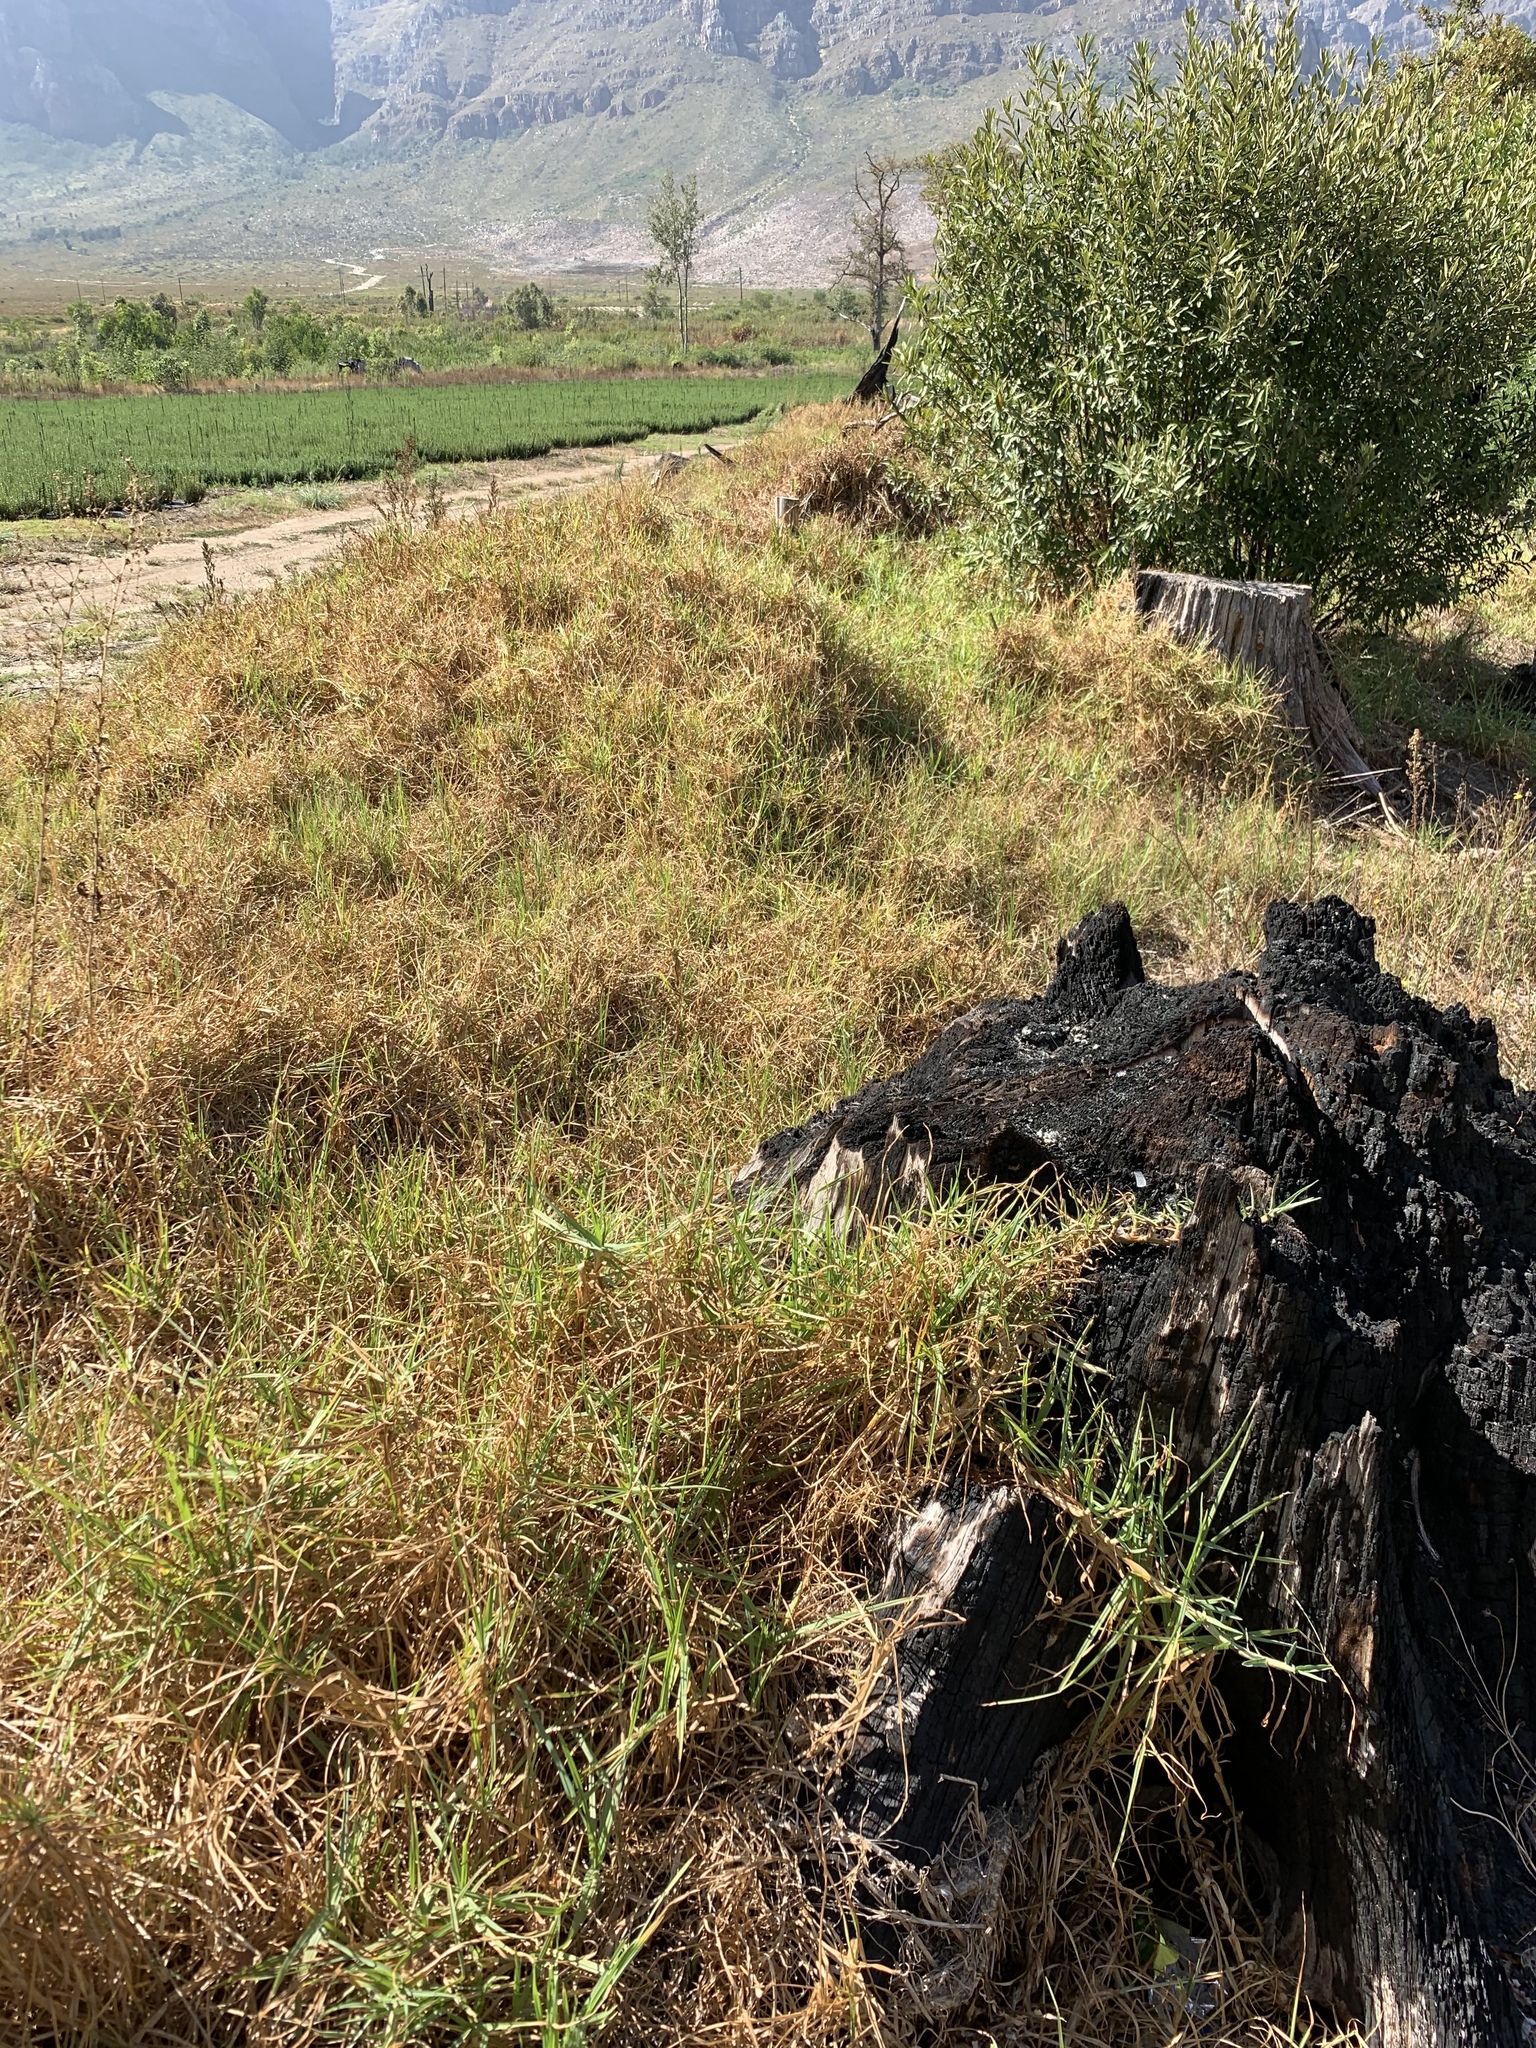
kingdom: Plantae
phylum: Tracheophyta
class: Liliopsida
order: Poales
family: Poaceae
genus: Cenchrus
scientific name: Cenchrus clandestinus
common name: Kikuyugrass
